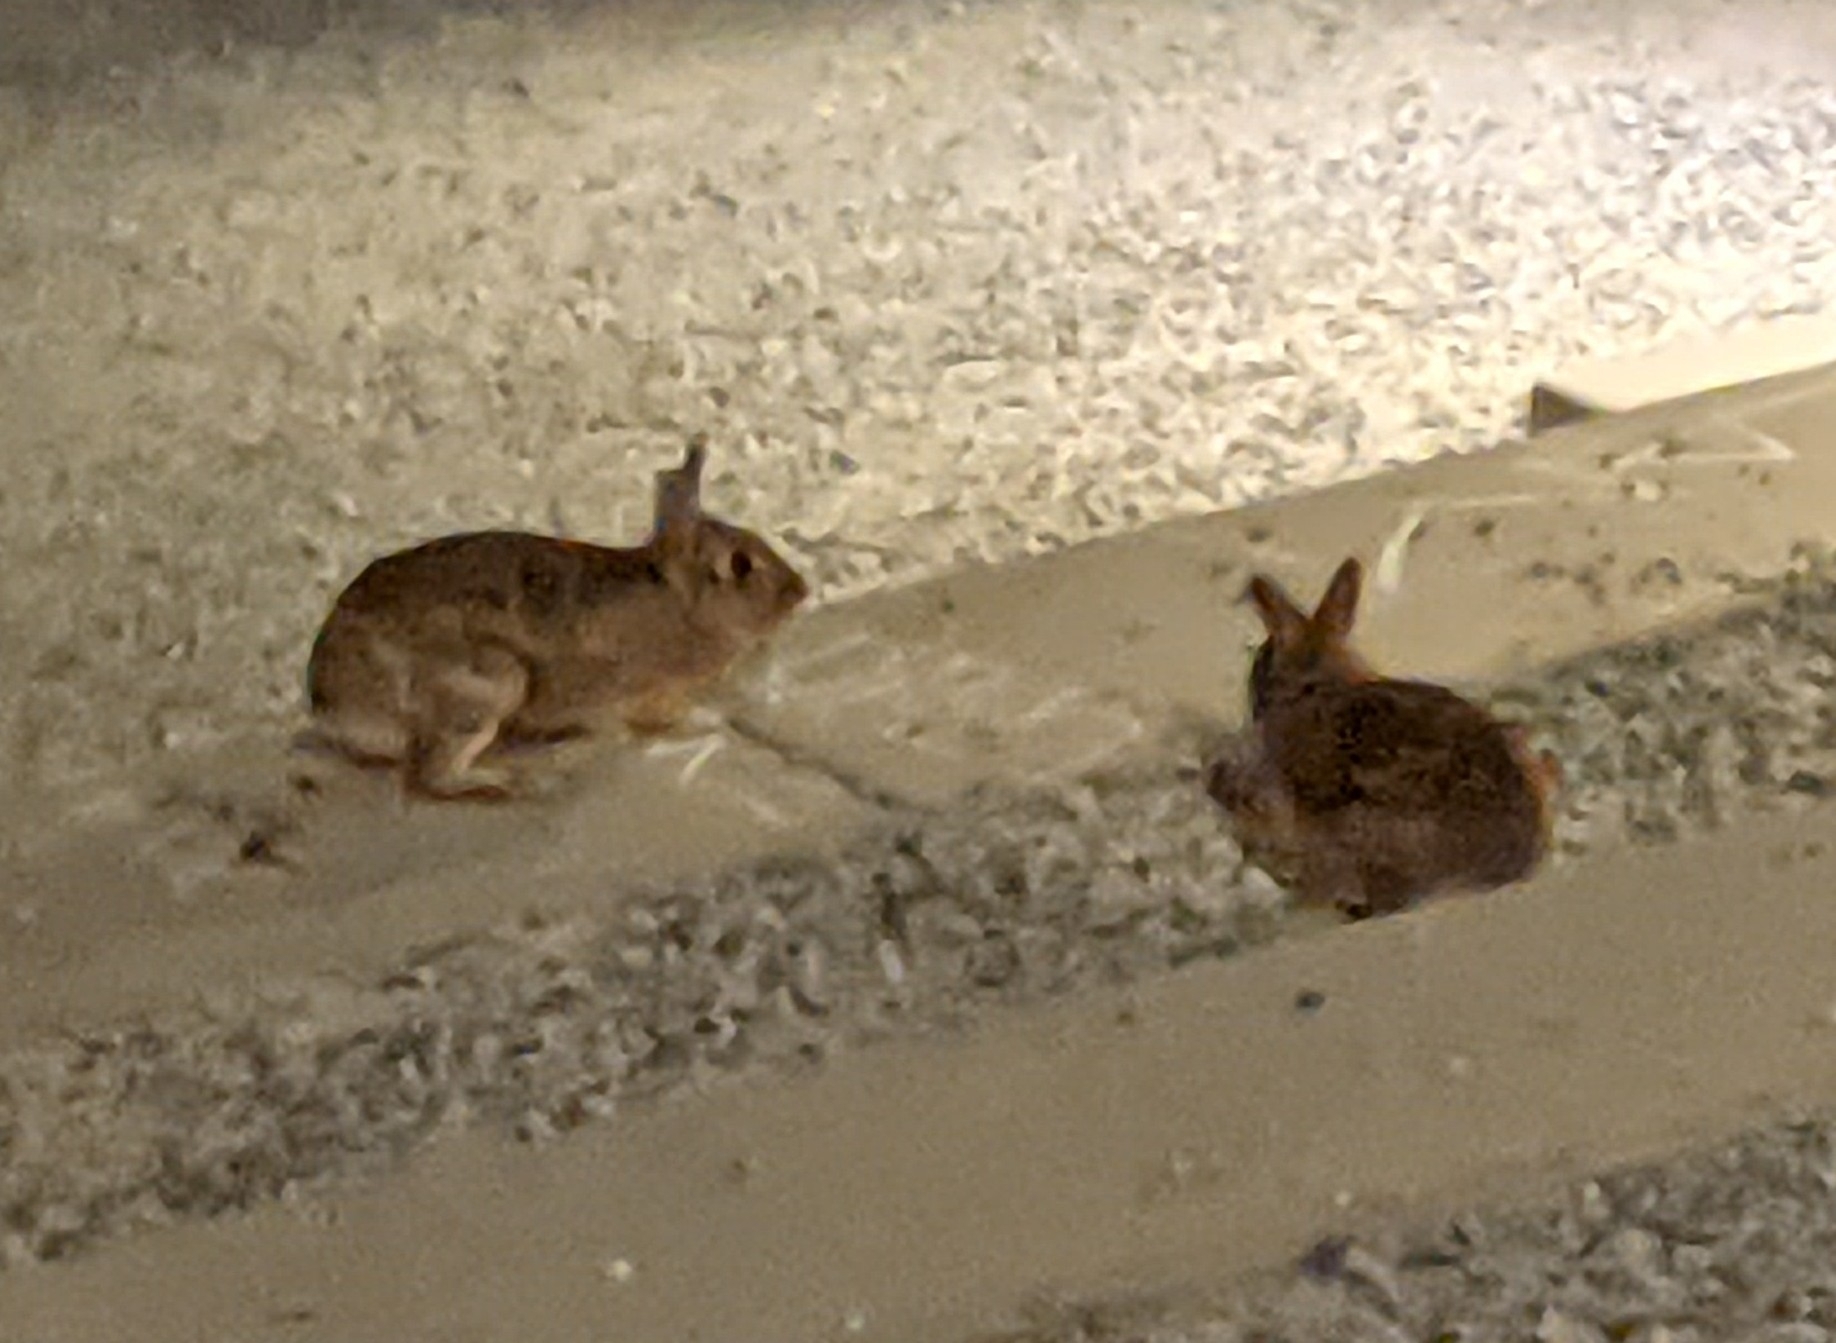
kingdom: Animalia
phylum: Chordata
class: Mammalia
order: Lagomorpha
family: Leporidae
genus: Sylvilagus
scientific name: Sylvilagus floridanus
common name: Eastern cottontail
